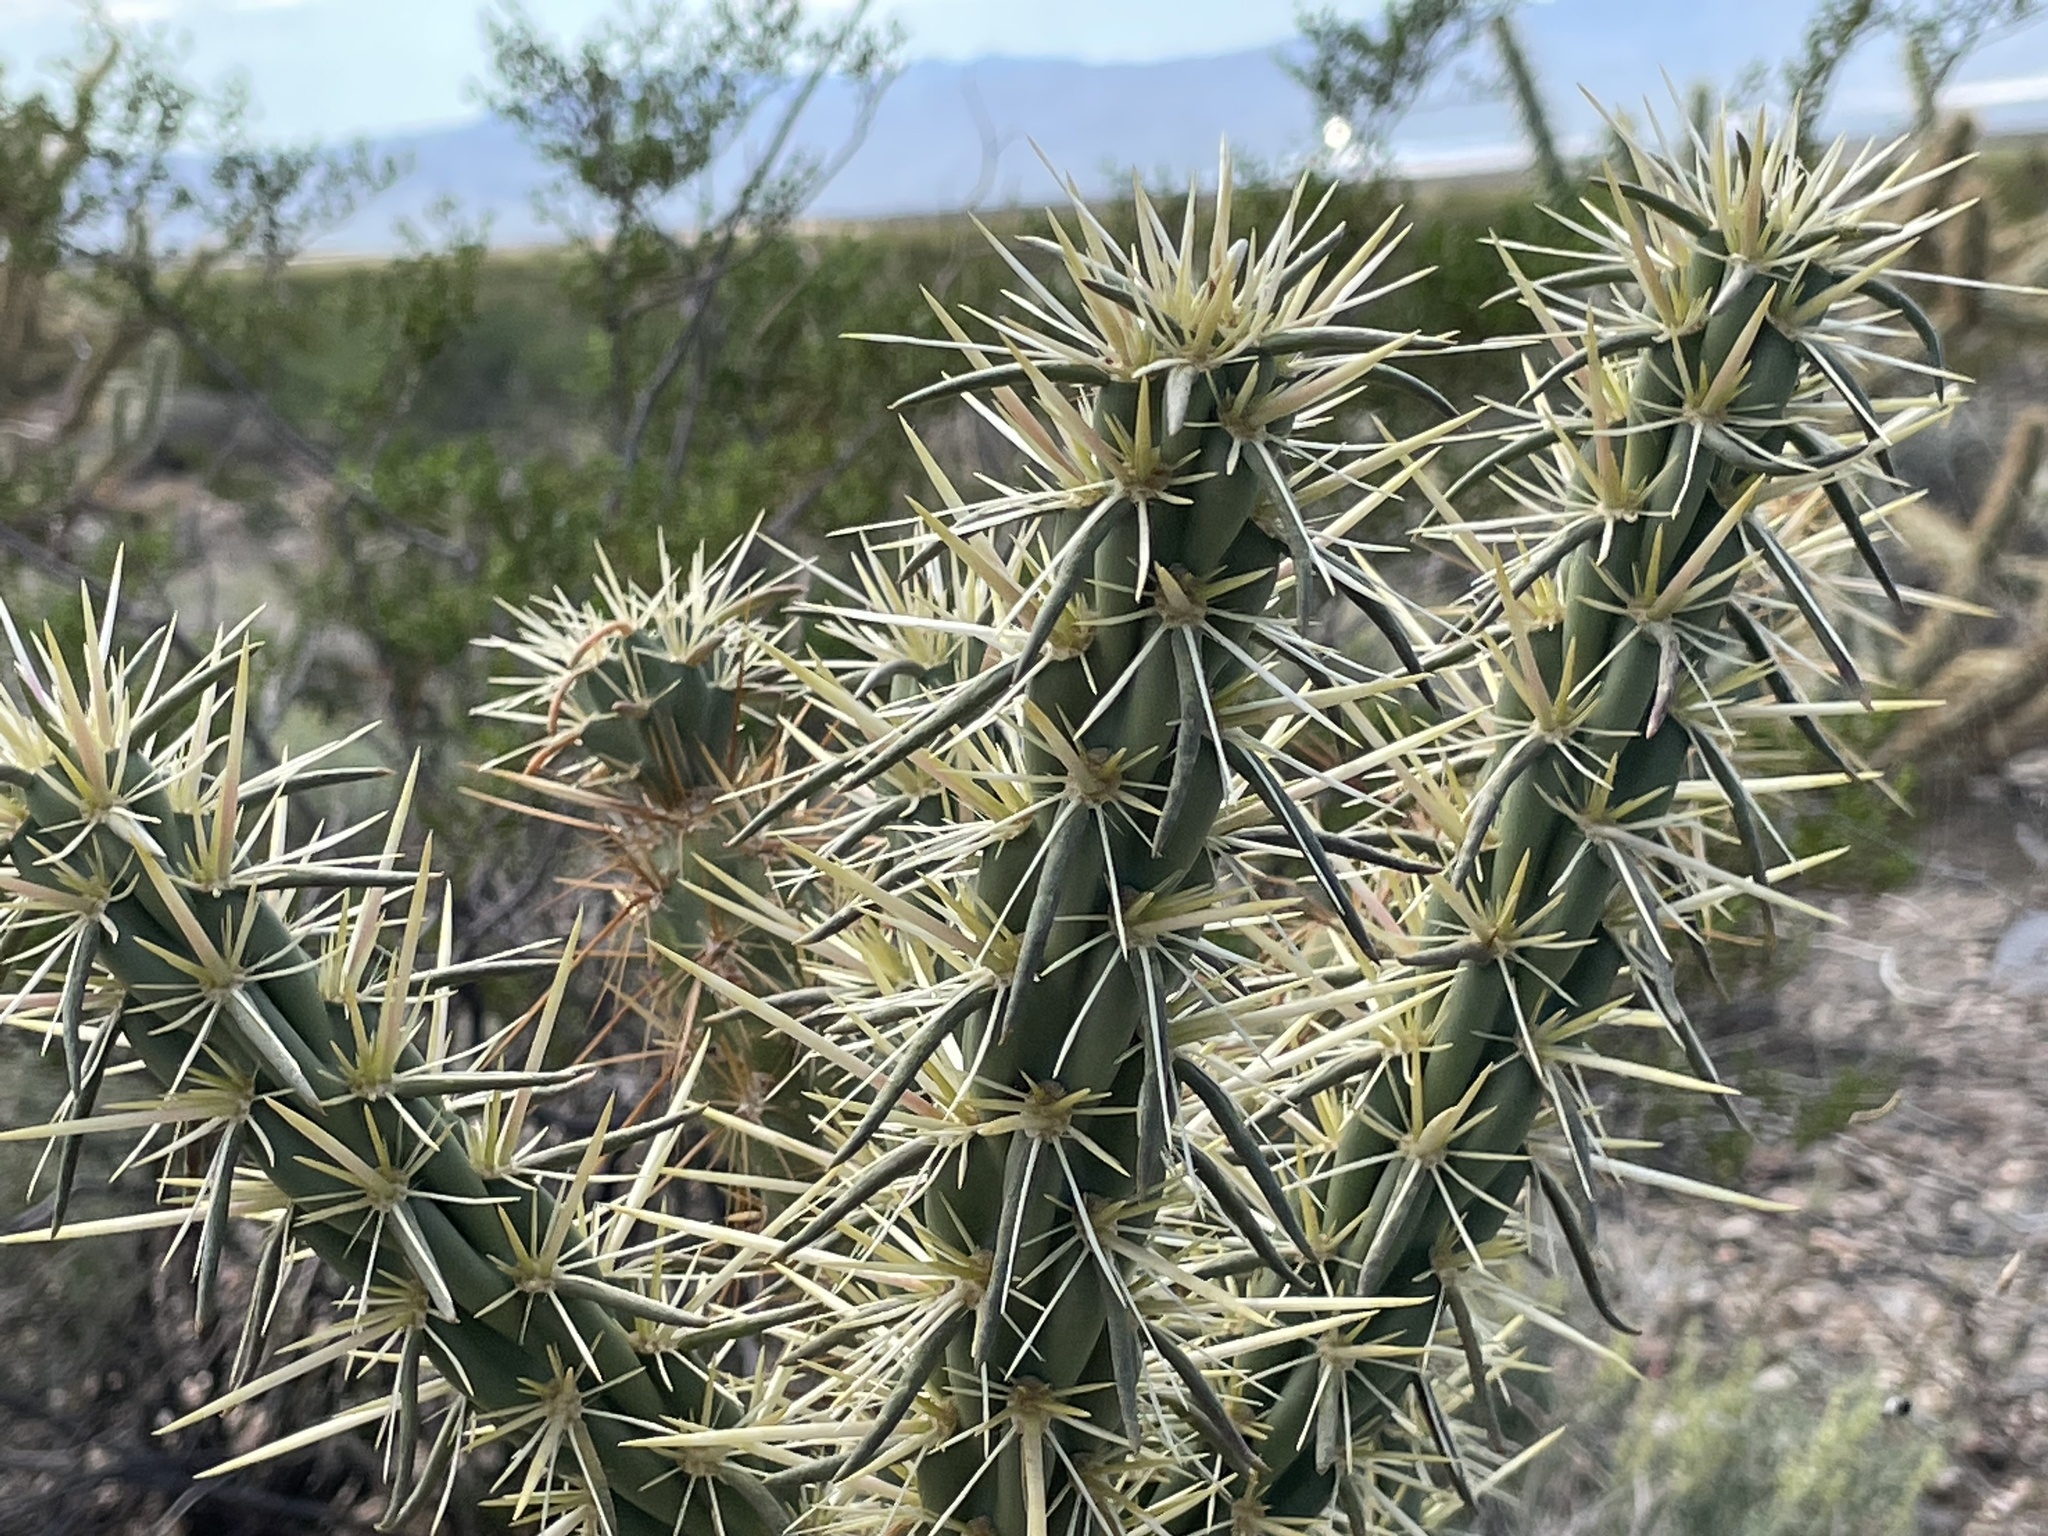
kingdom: Plantae
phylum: Tracheophyta
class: Magnoliopsida
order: Caryophyllales
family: Cactaceae
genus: Cylindropuntia
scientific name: Cylindropuntia acanthocarpa
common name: Buckhorn cholla
